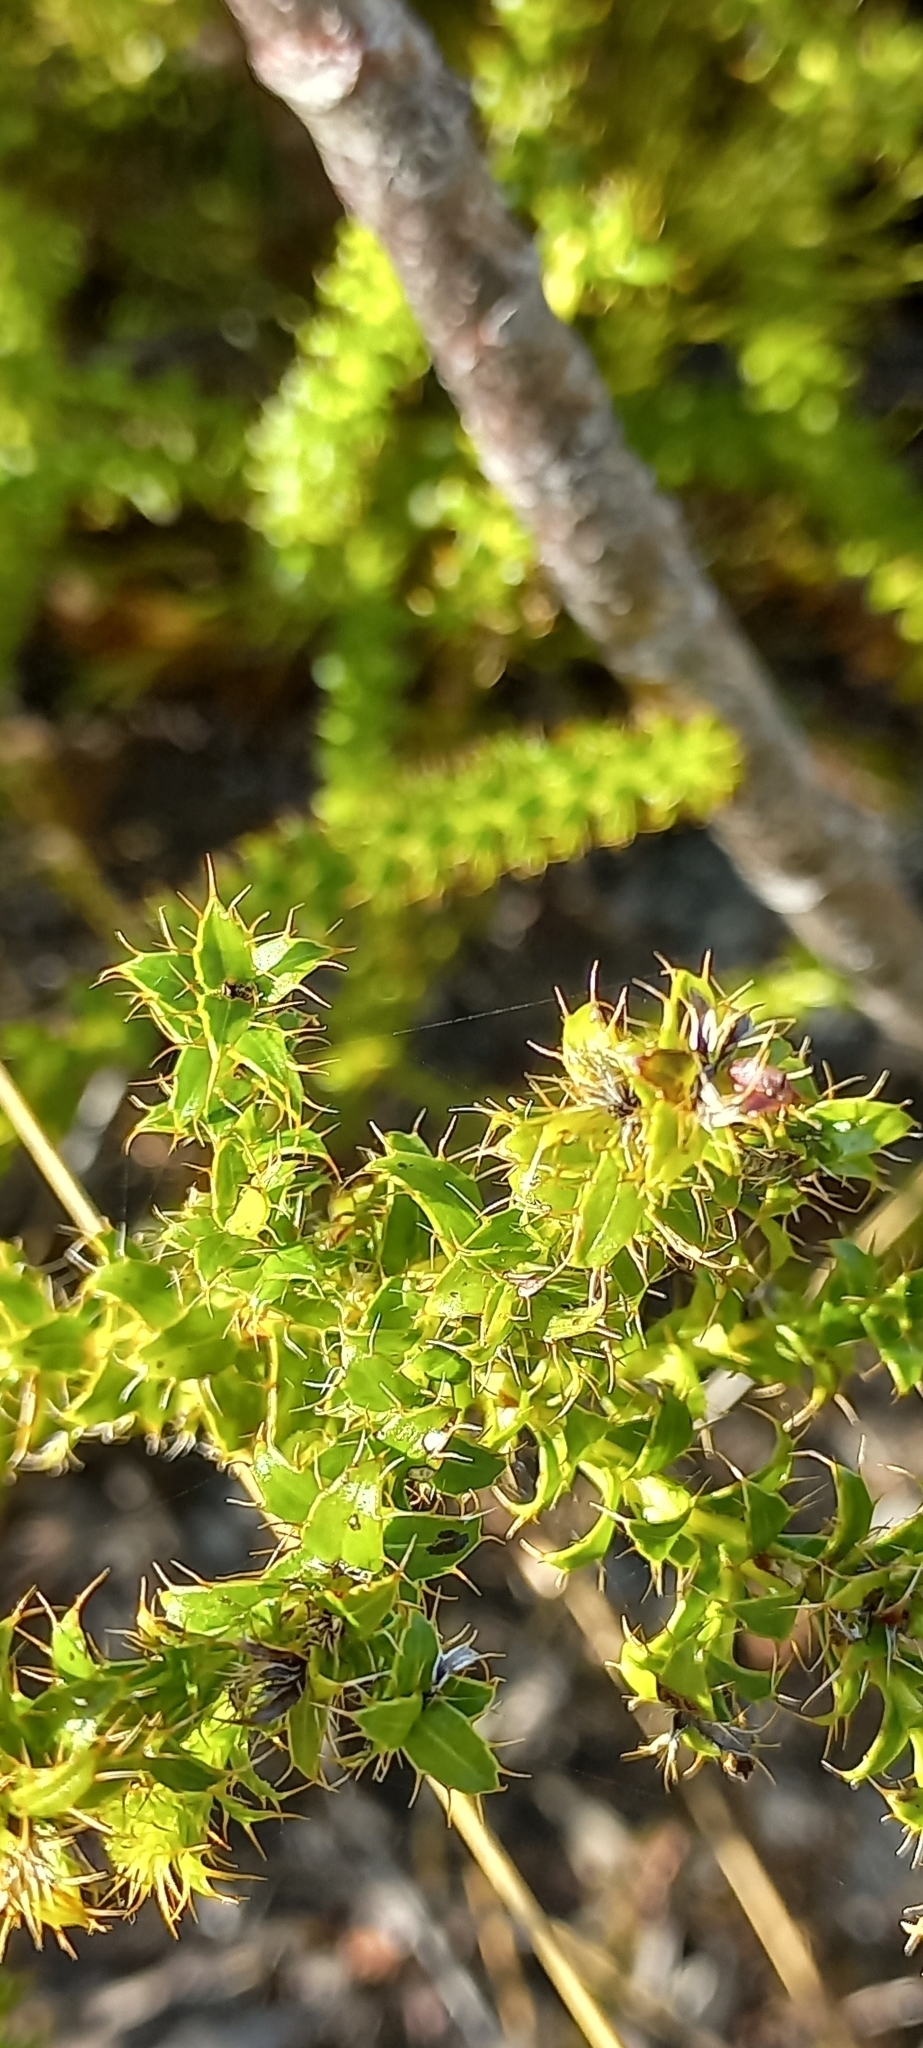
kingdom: Plantae
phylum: Tracheophyta
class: Magnoliopsida
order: Asterales
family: Asteraceae
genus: Cullumia
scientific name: Cullumia setosa
